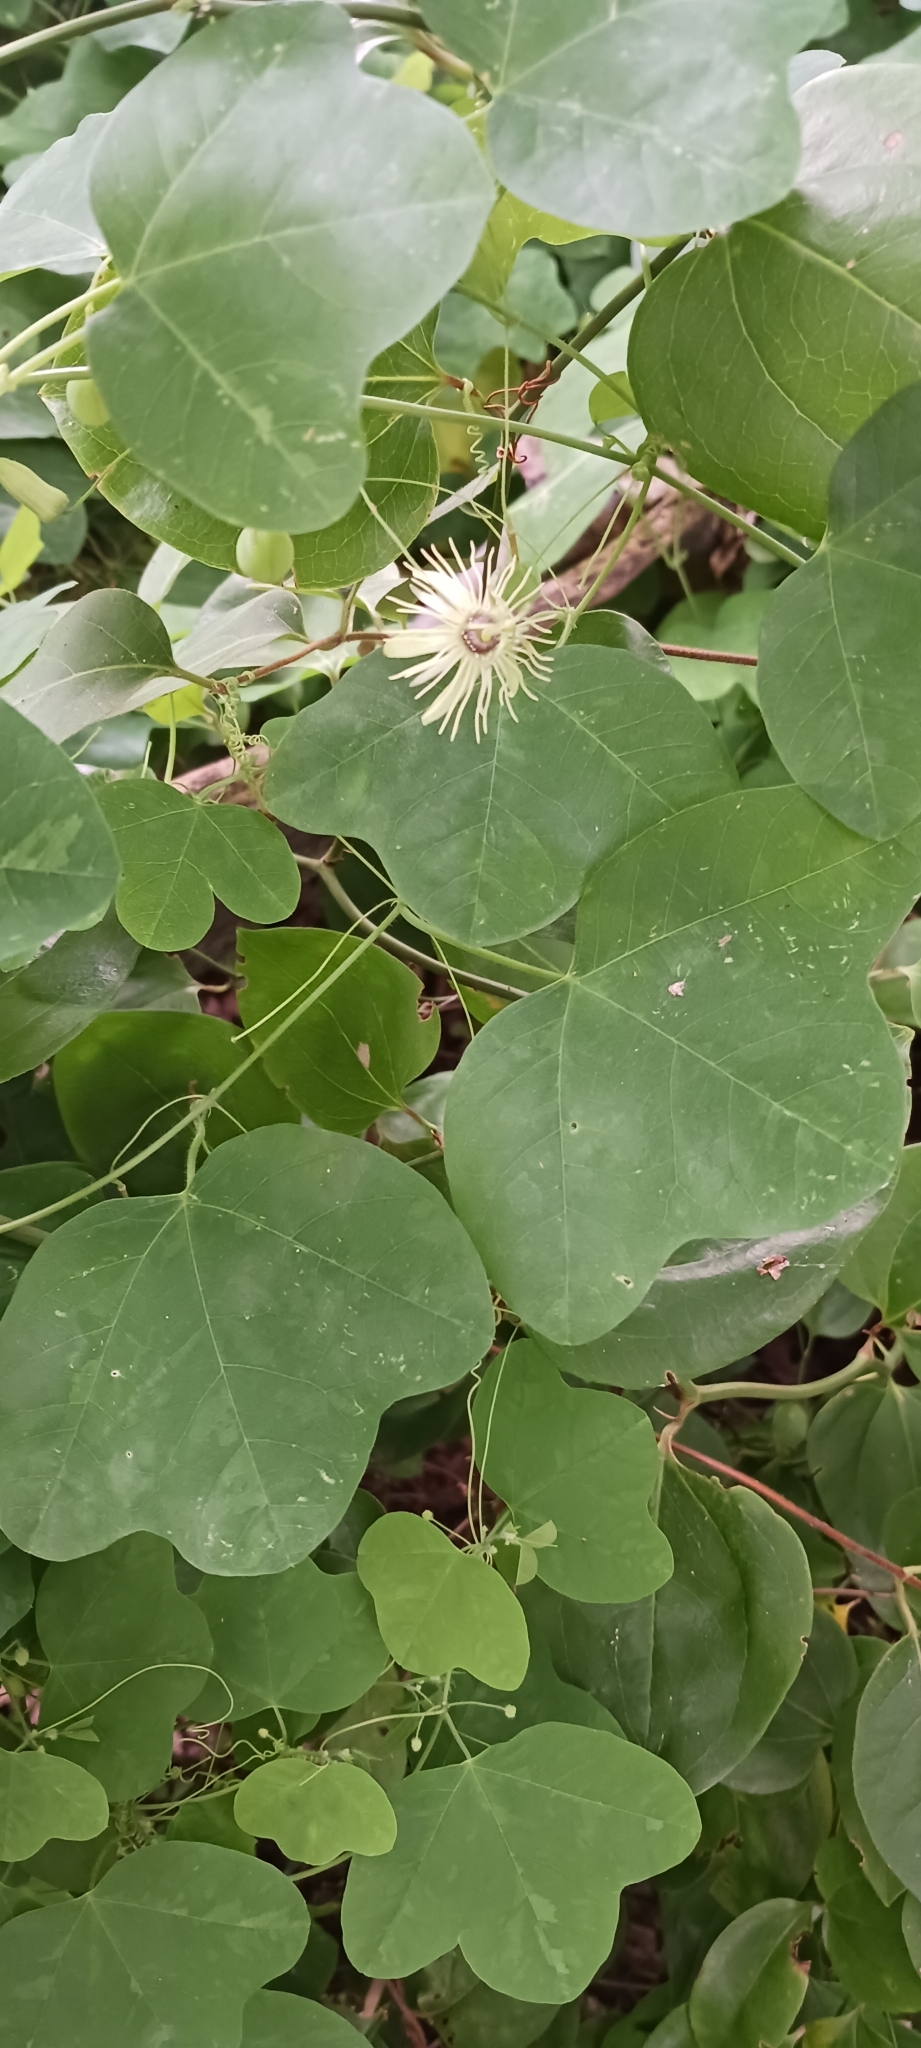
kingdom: Plantae
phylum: Tracheophyta
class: Magnoliopsida
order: Malpighiales
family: Passifloraceae
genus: Passiflora
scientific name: Passiflora lutea
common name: Yellow passionflower
